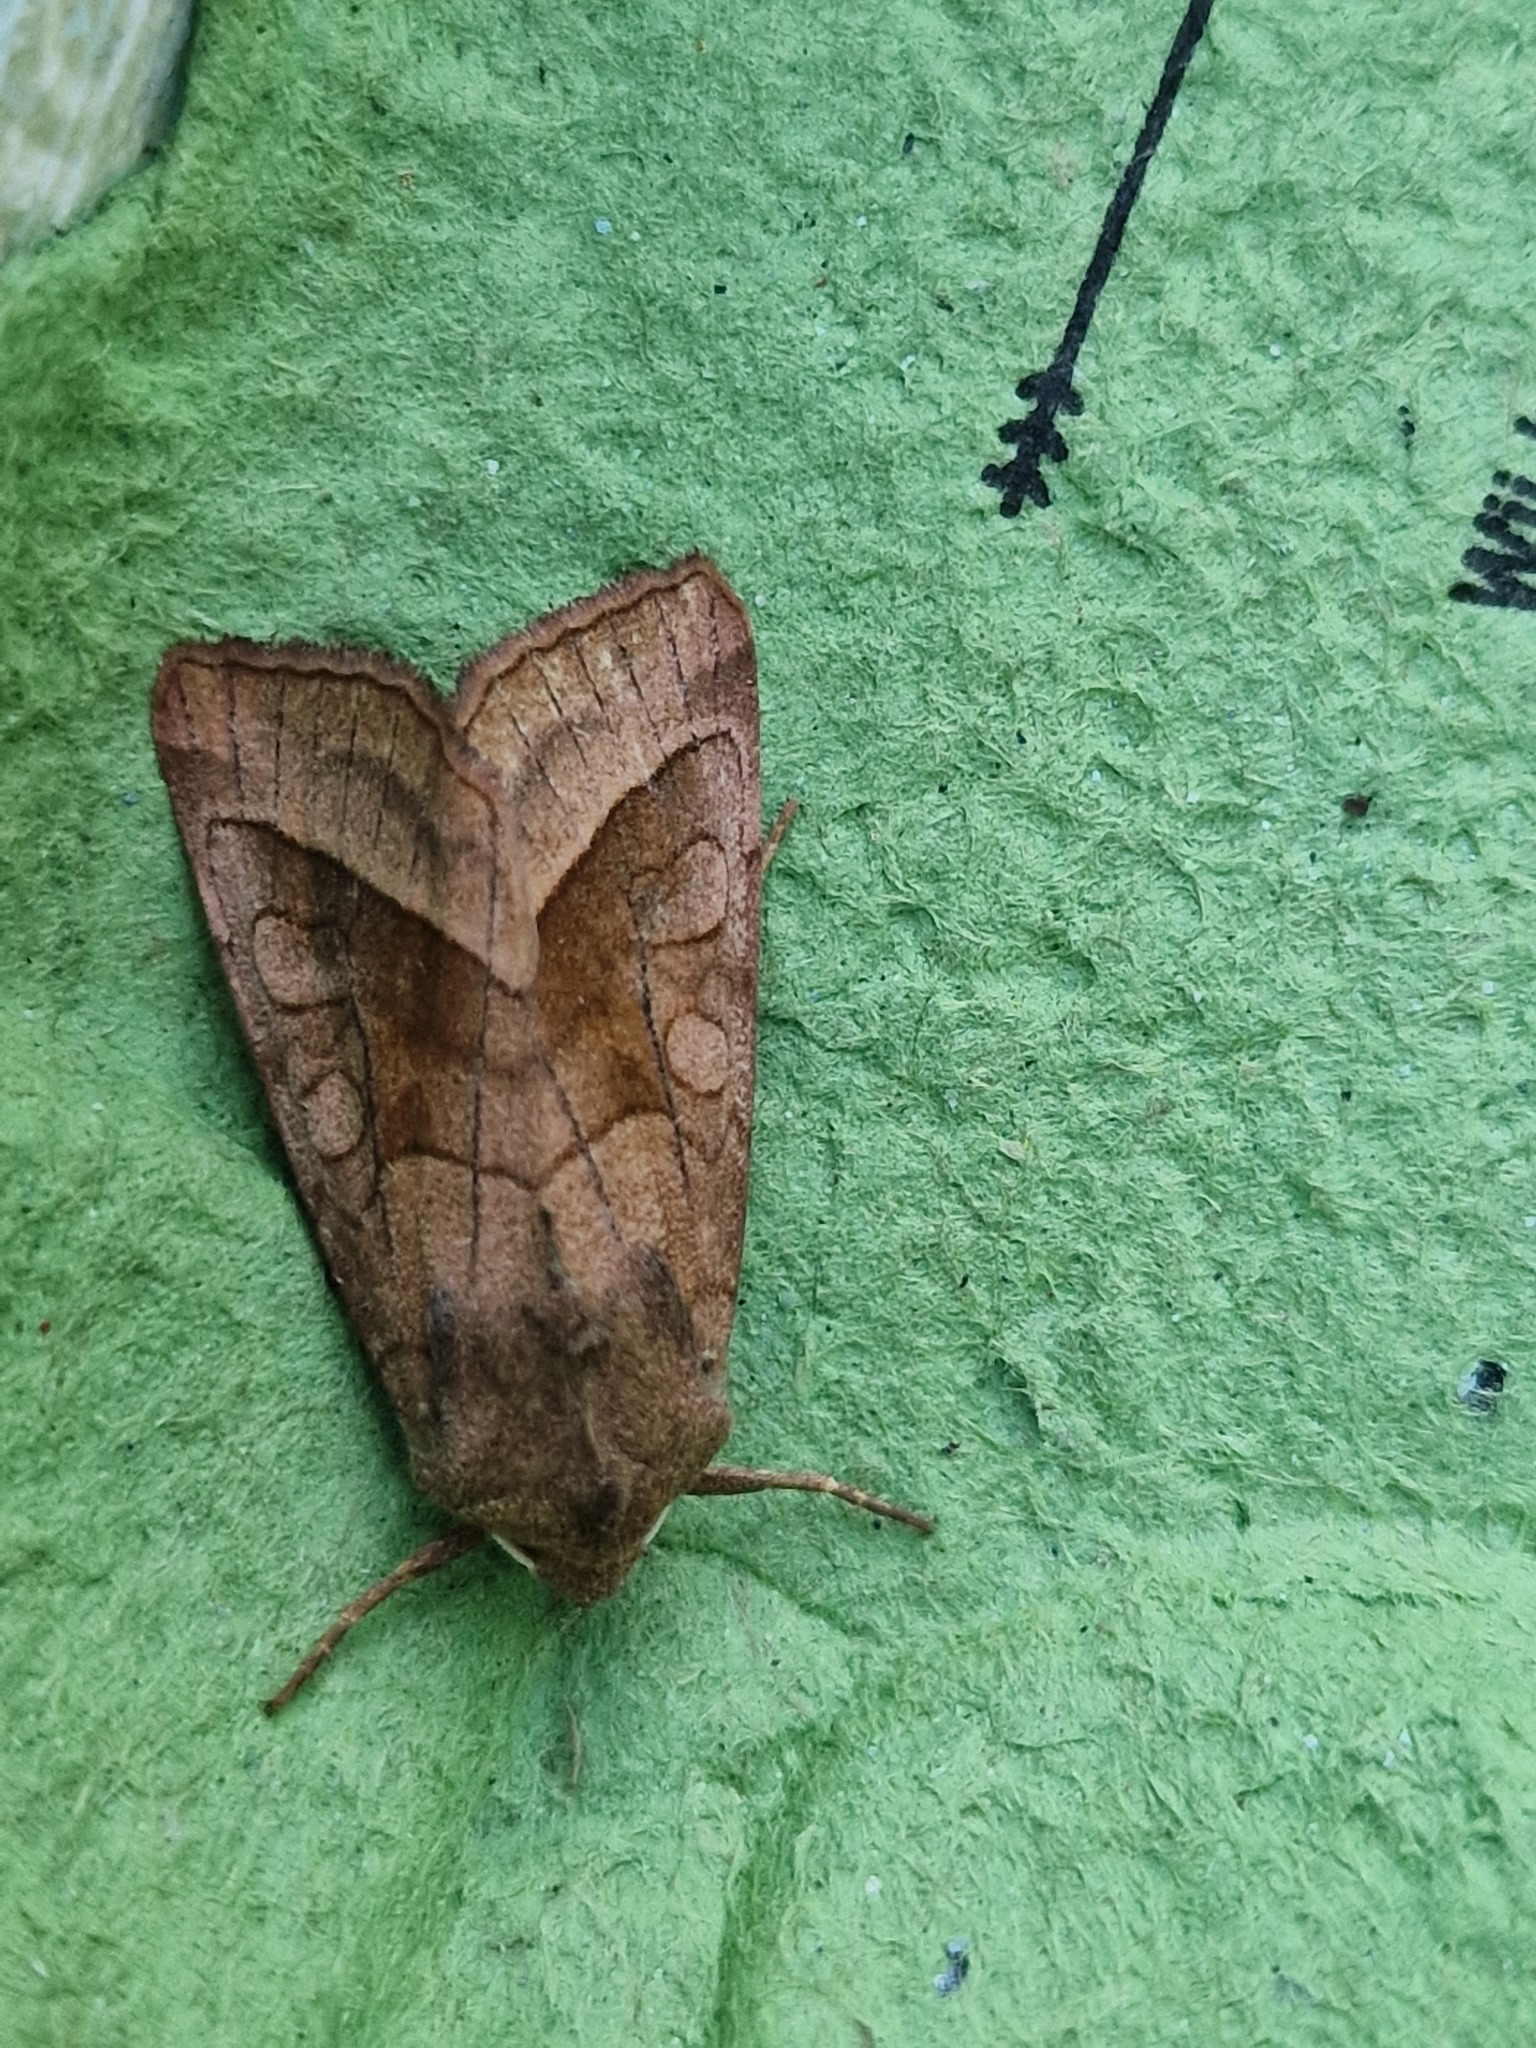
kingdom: Animalia
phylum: Arthropoda
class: Insecta
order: Lepidoptera
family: Noctuidae
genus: Hydraecia
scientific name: Hydraecia micacea
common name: Rosy rustic
